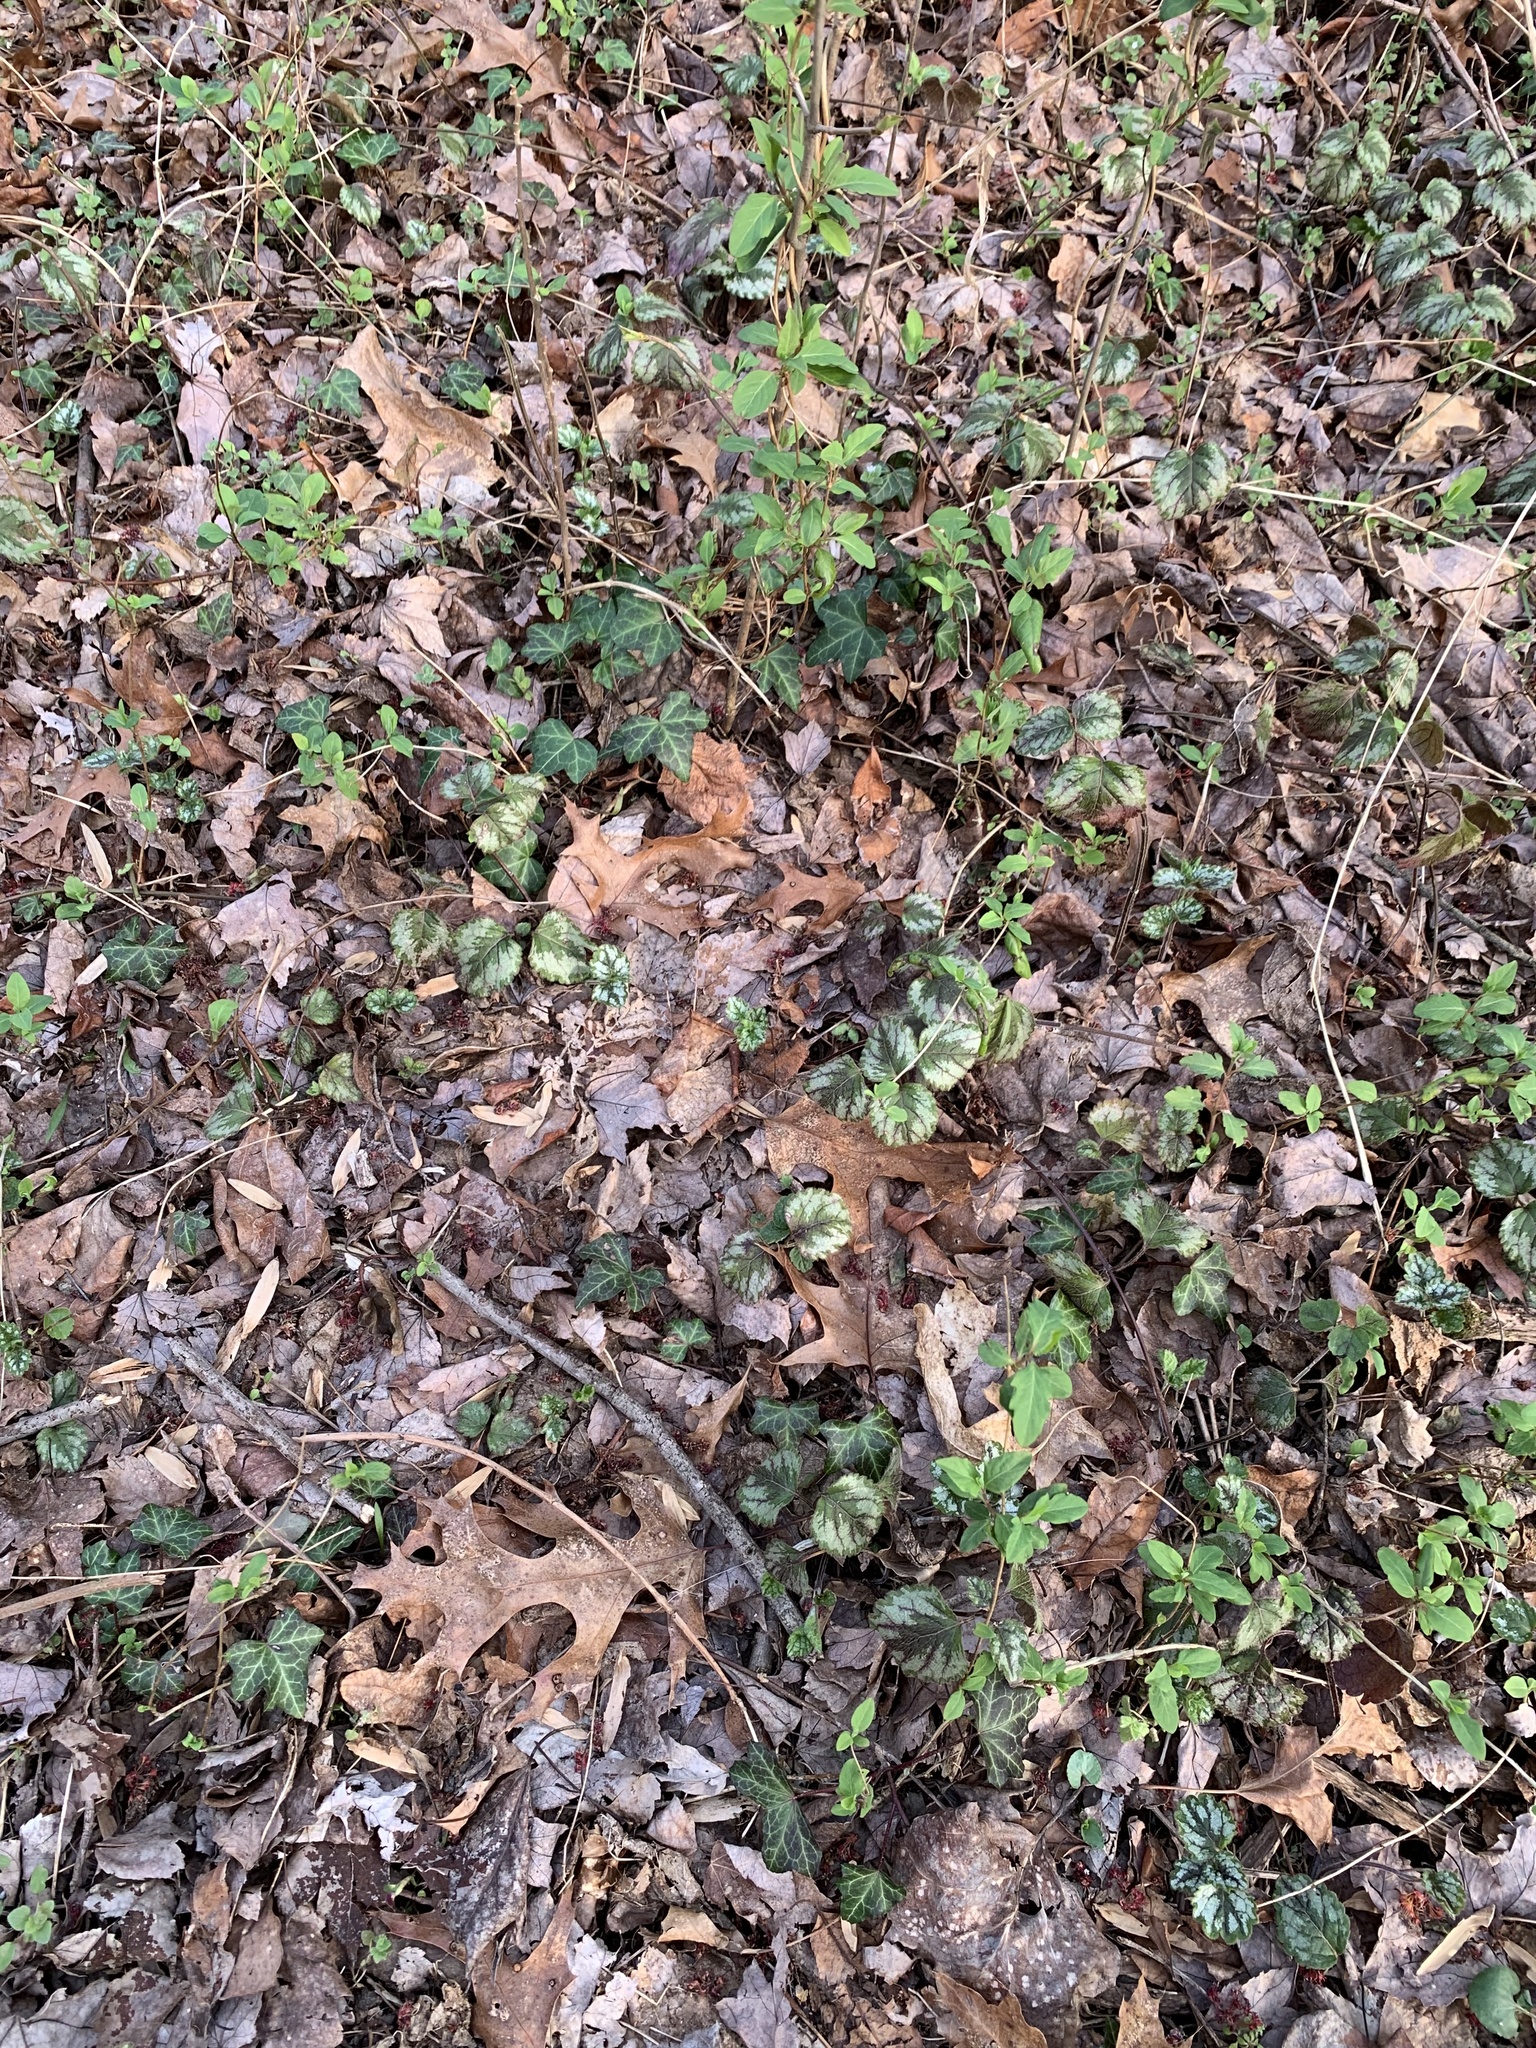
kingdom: Plantae
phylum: Tracheophyta
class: Magnoliopsida
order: Lamiales
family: Lamiaceae
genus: Lamium
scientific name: Lamium galeobdolon
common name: Yellow archangel
